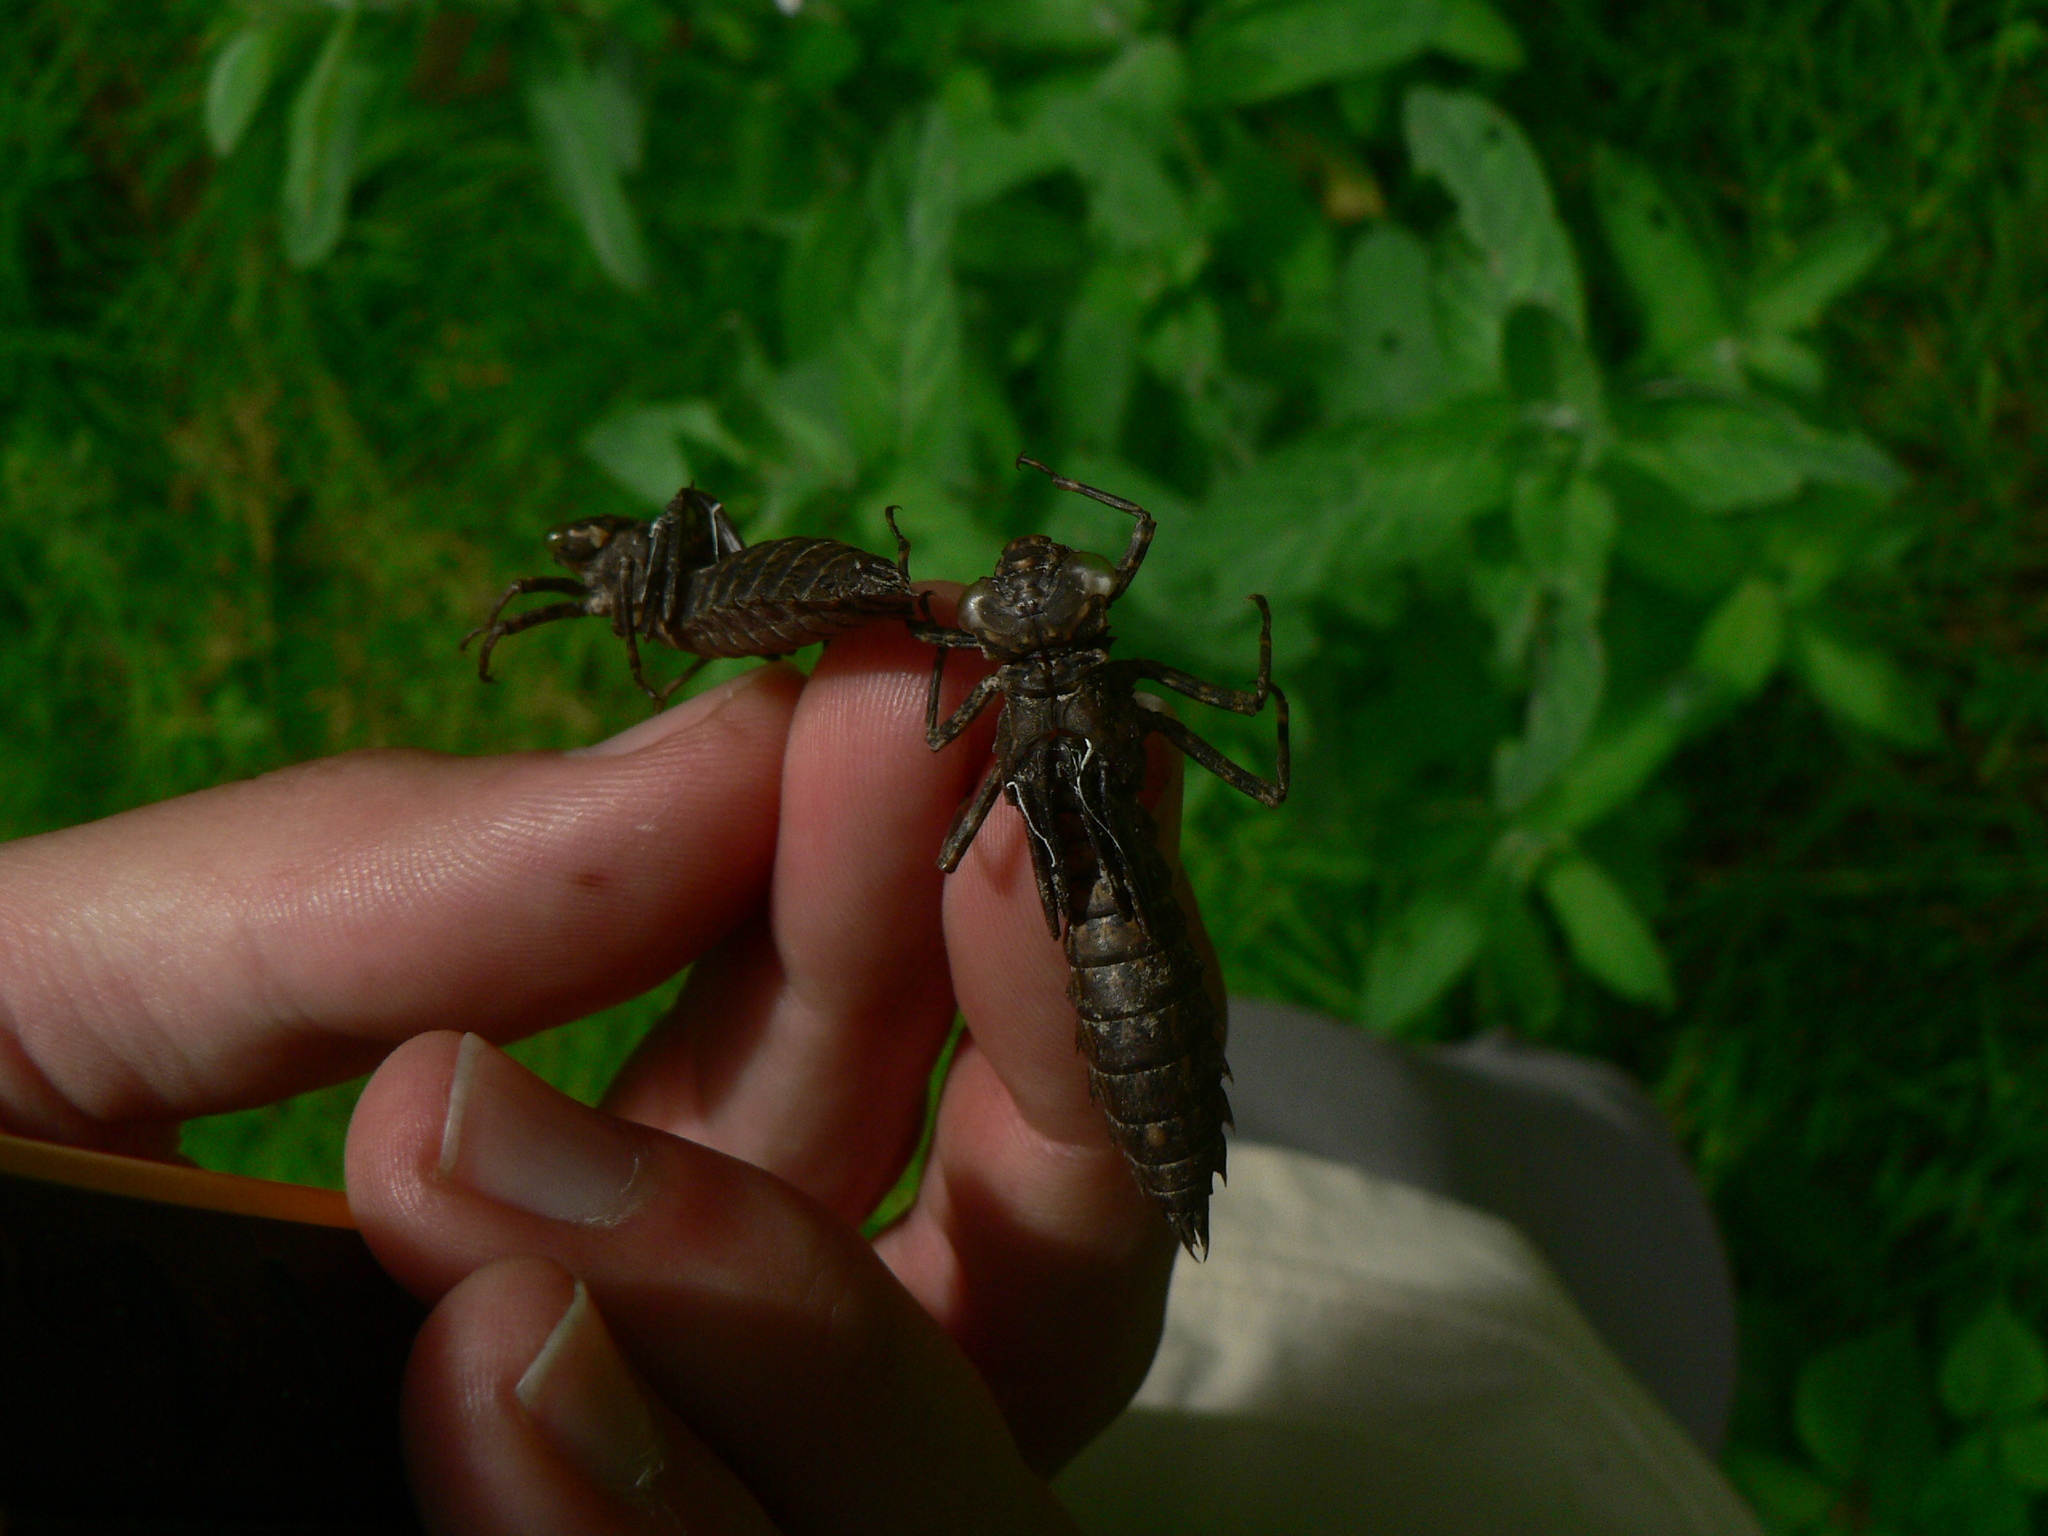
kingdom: Animalia
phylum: Arthropoda
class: Insecta
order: Odonata
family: Aeshnidae
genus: Boyeria
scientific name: Boyeria irene
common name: Western spectre
